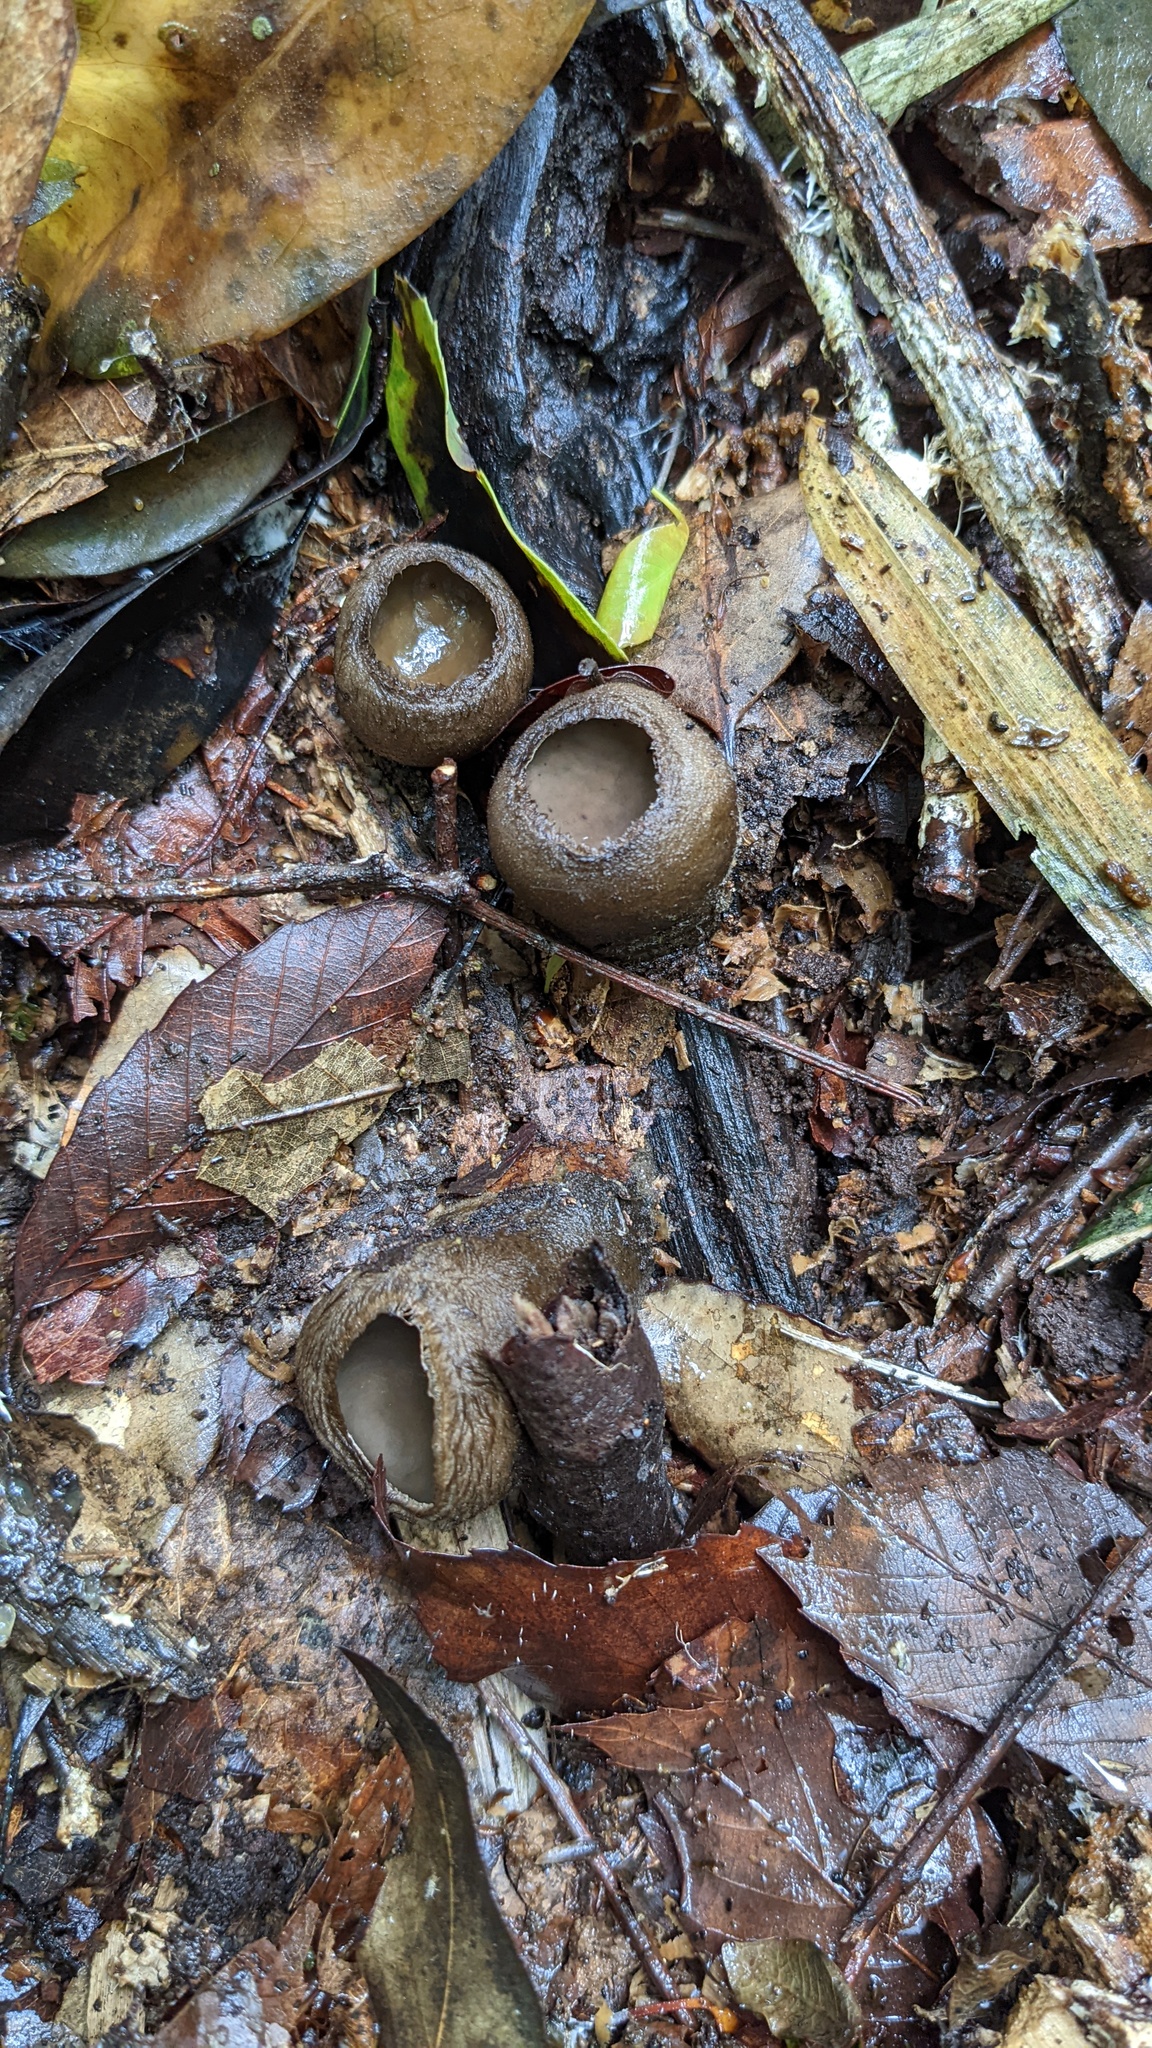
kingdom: Fungi
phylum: Ascomycota
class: Pezizomycetes
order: Pezizales
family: Pyronemataceae
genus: Trichaleurina
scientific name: Trichaleurina tenuispora
